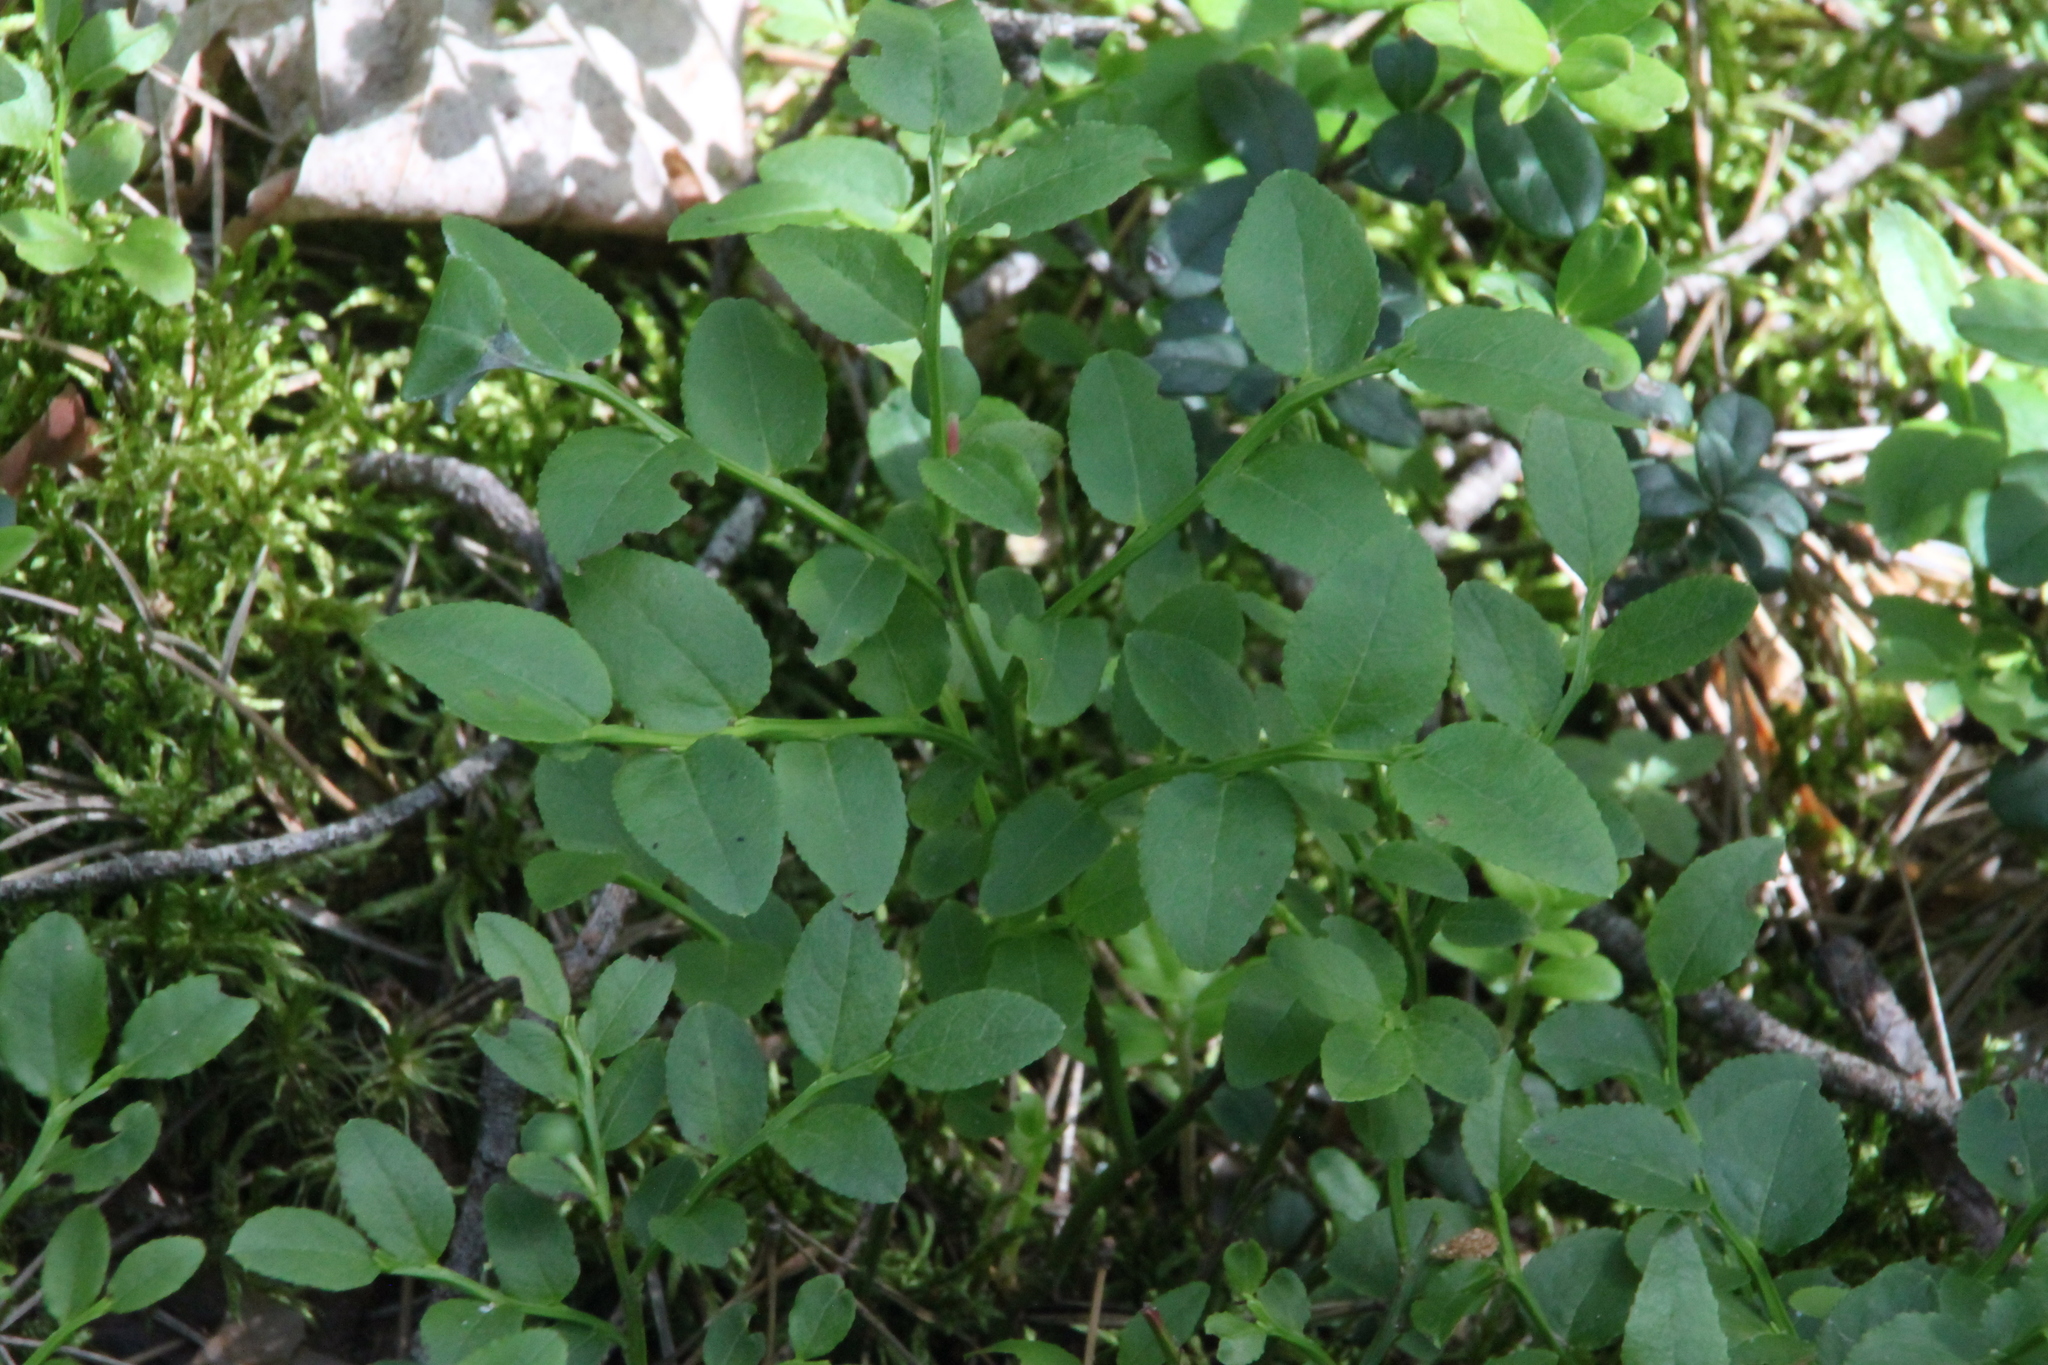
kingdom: Plantae
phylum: Tracheophyta
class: Magnoliopsida
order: Ericales
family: Ericaceae
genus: Vaccinium
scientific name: Vaccinium myrtillus
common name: Bilberry
